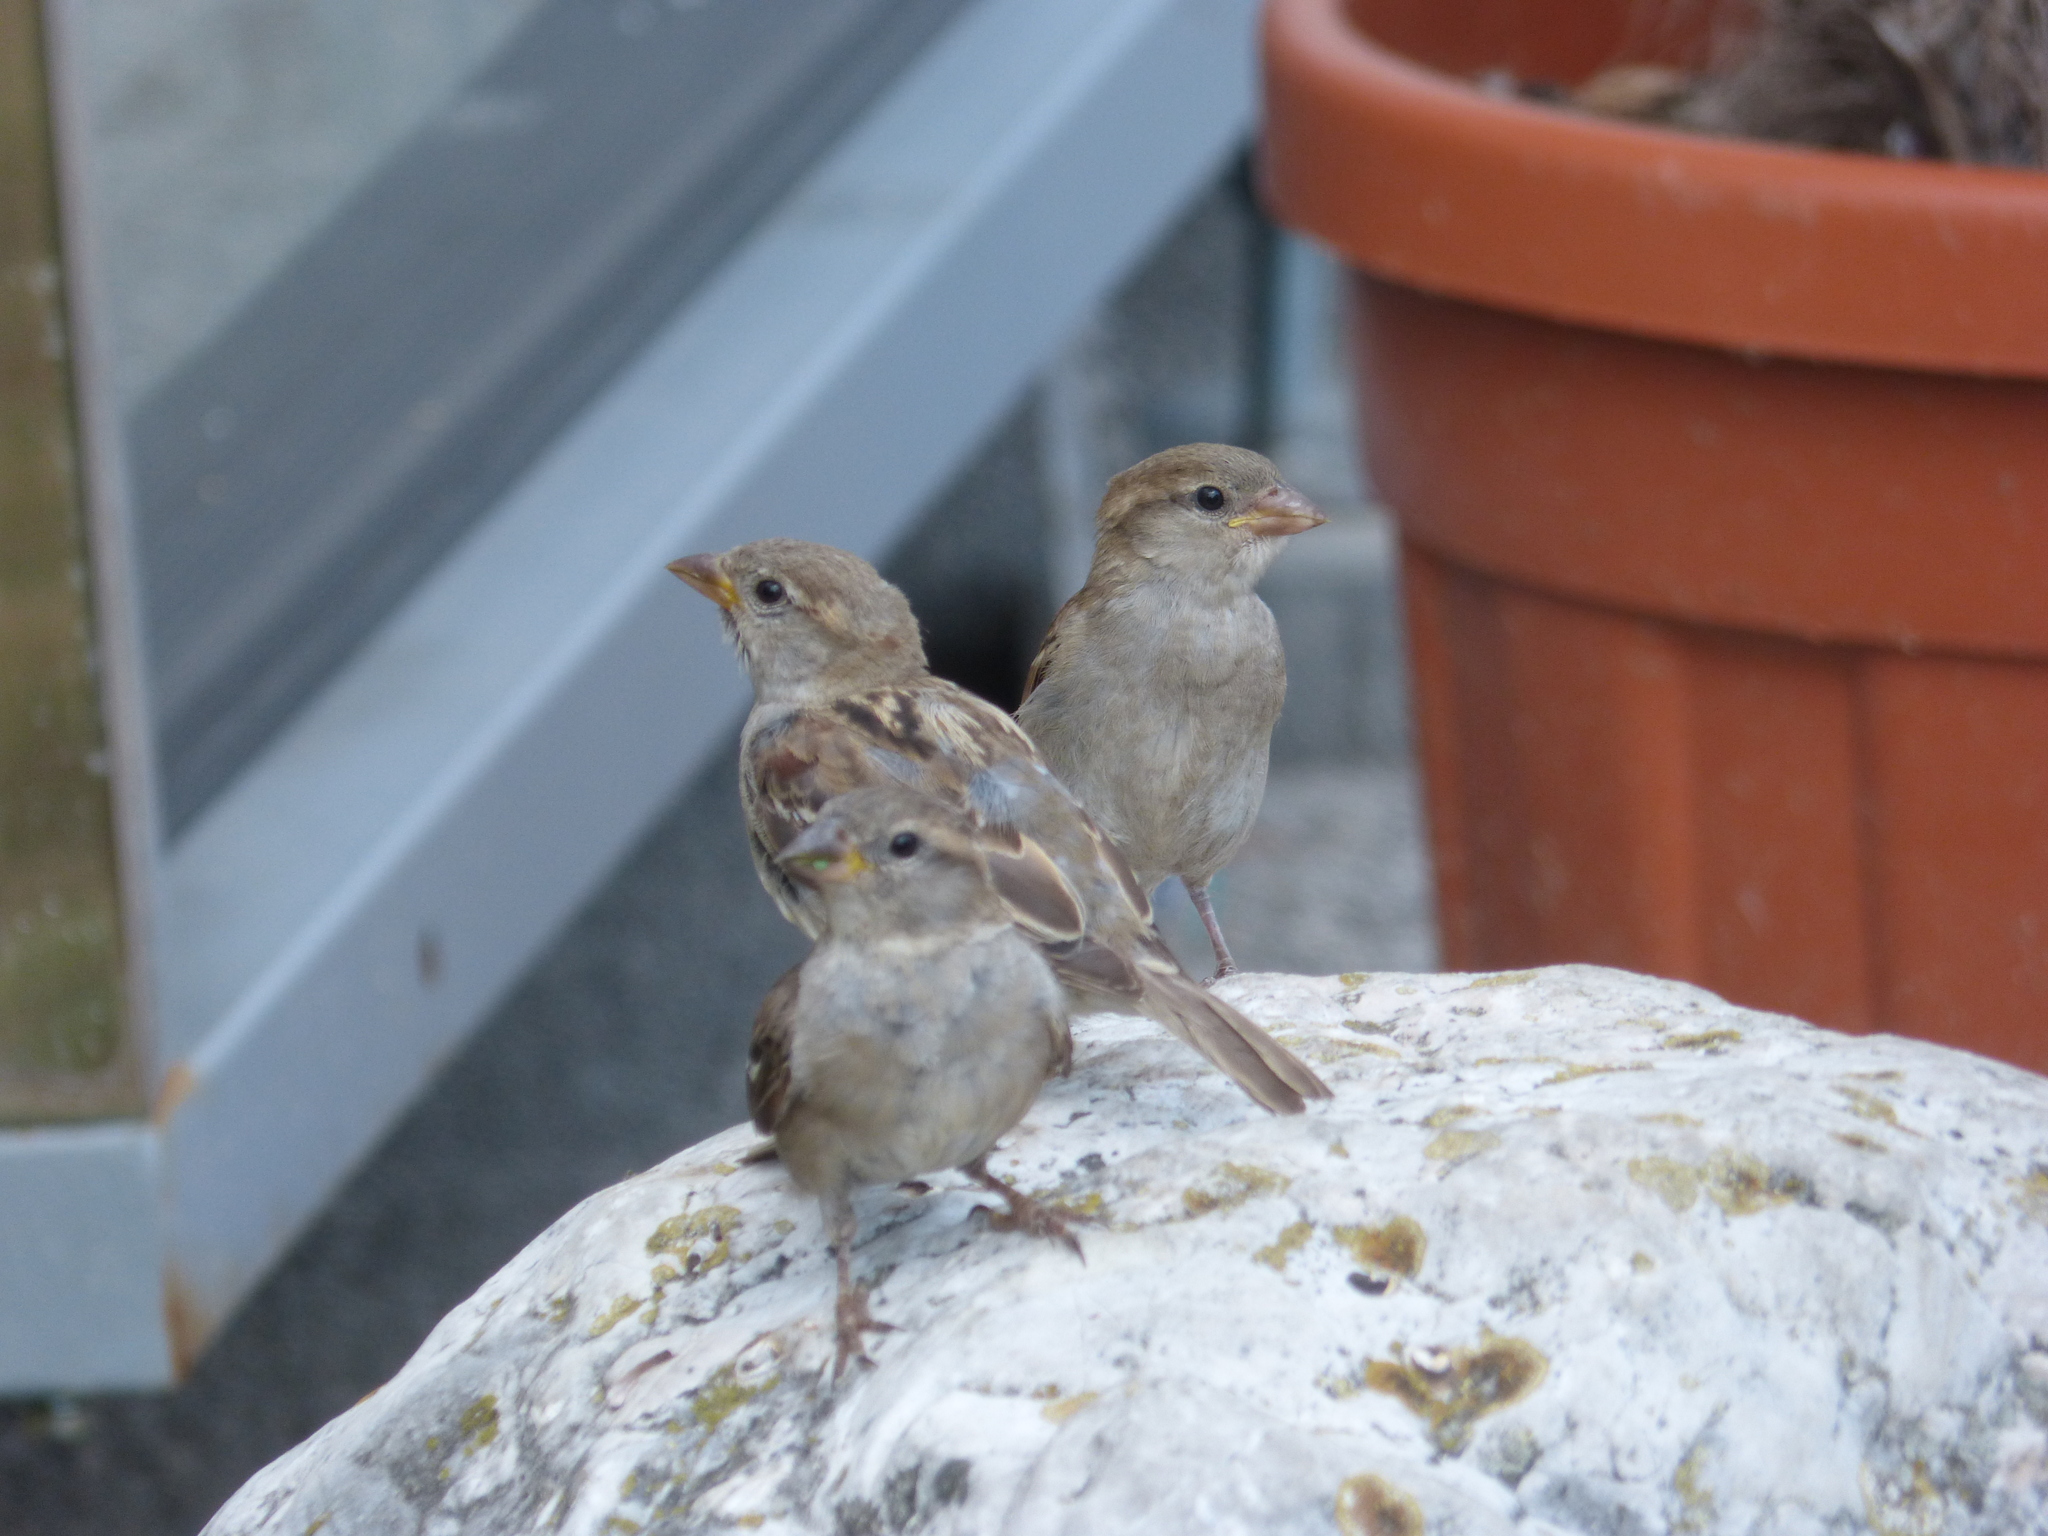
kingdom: Animalia
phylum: Chordata
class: Aves
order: Passeriformes
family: Passeridae
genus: Passer
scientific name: Passer domesticus
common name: House sparrow
